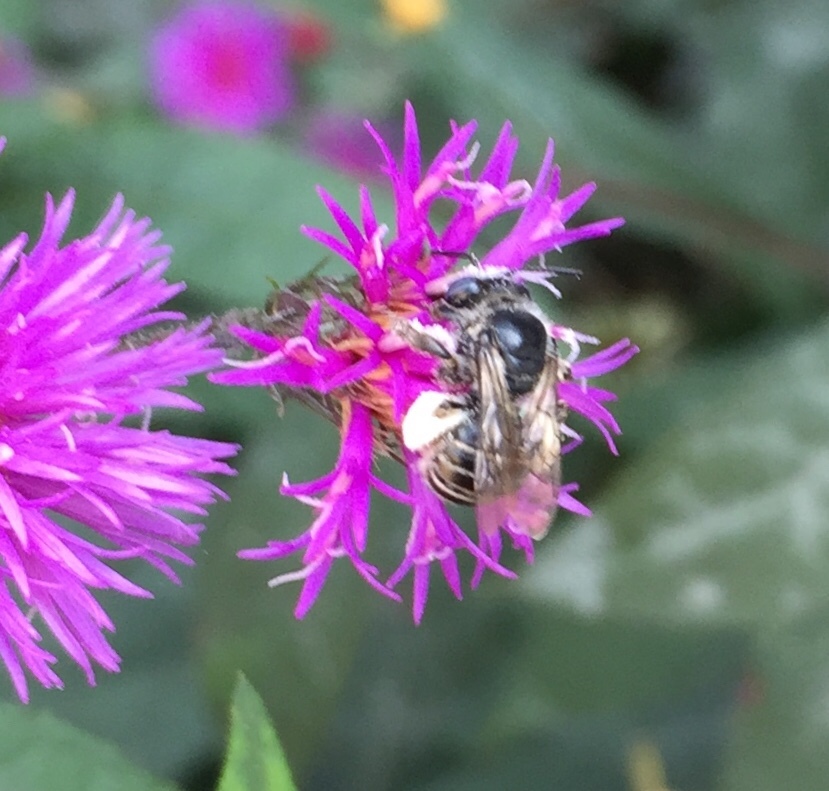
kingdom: Animalia
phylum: Arthropoda
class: Insecta
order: Hymenoptera
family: Apidae
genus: Melissodes
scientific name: Melissodes denticulatus
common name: Denticulate long-horned bee
